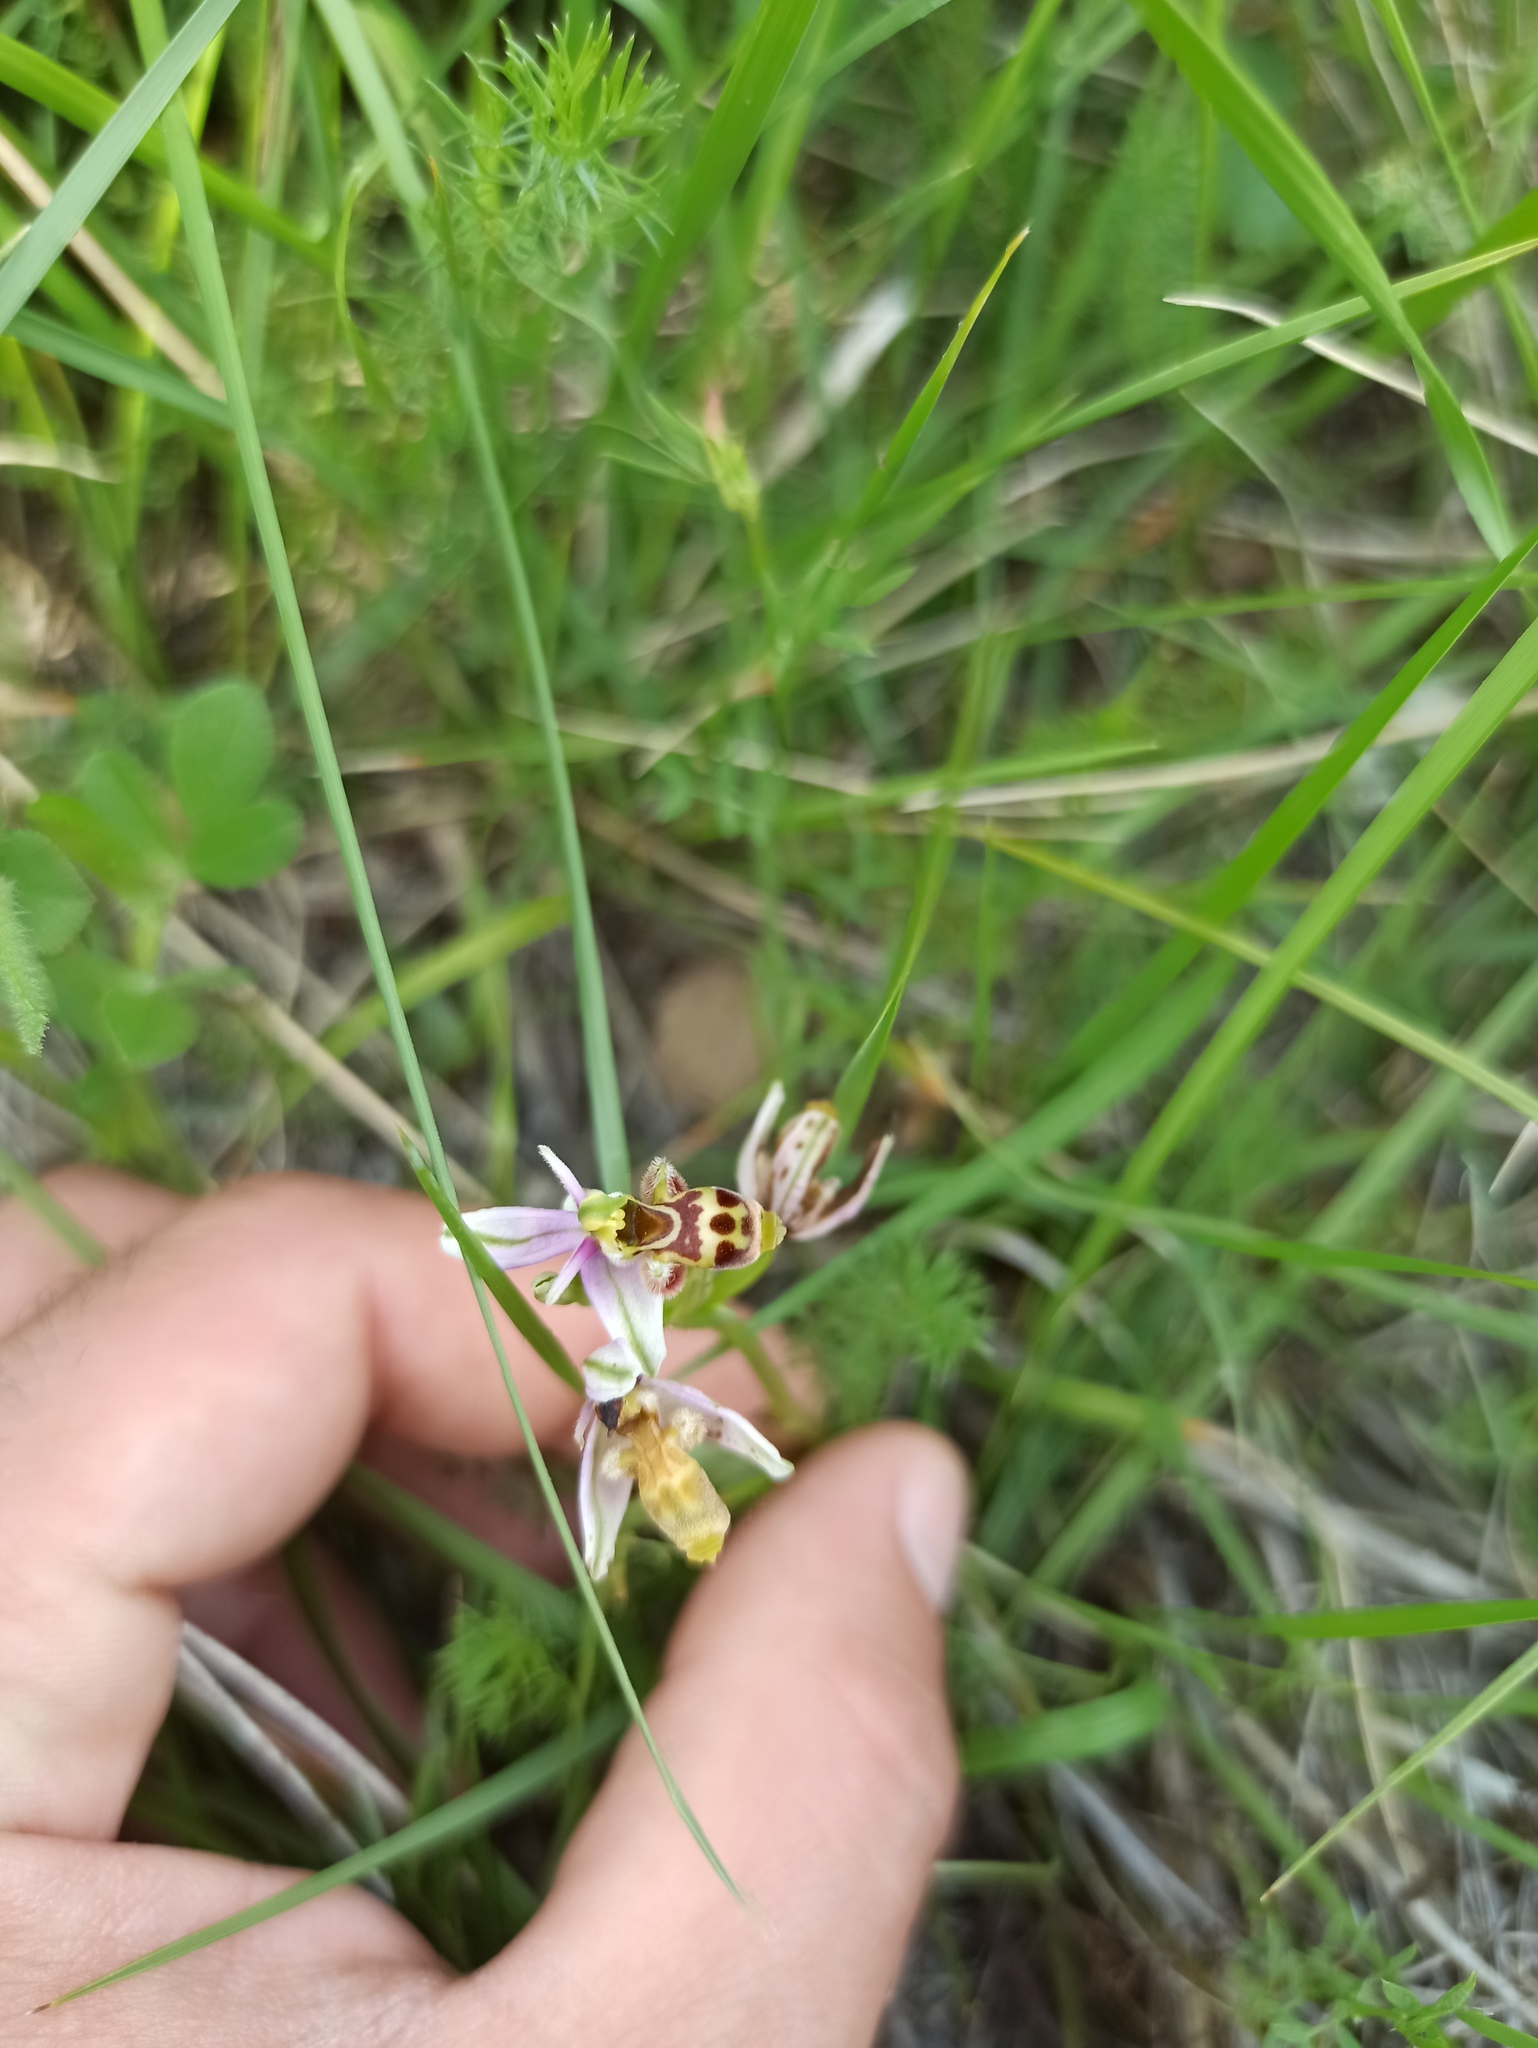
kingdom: Plantae
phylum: Tracheophyta
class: Liliopsida
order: Asparagales
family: Orchidaceae
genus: Ophrys
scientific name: Ophrys scolopax
